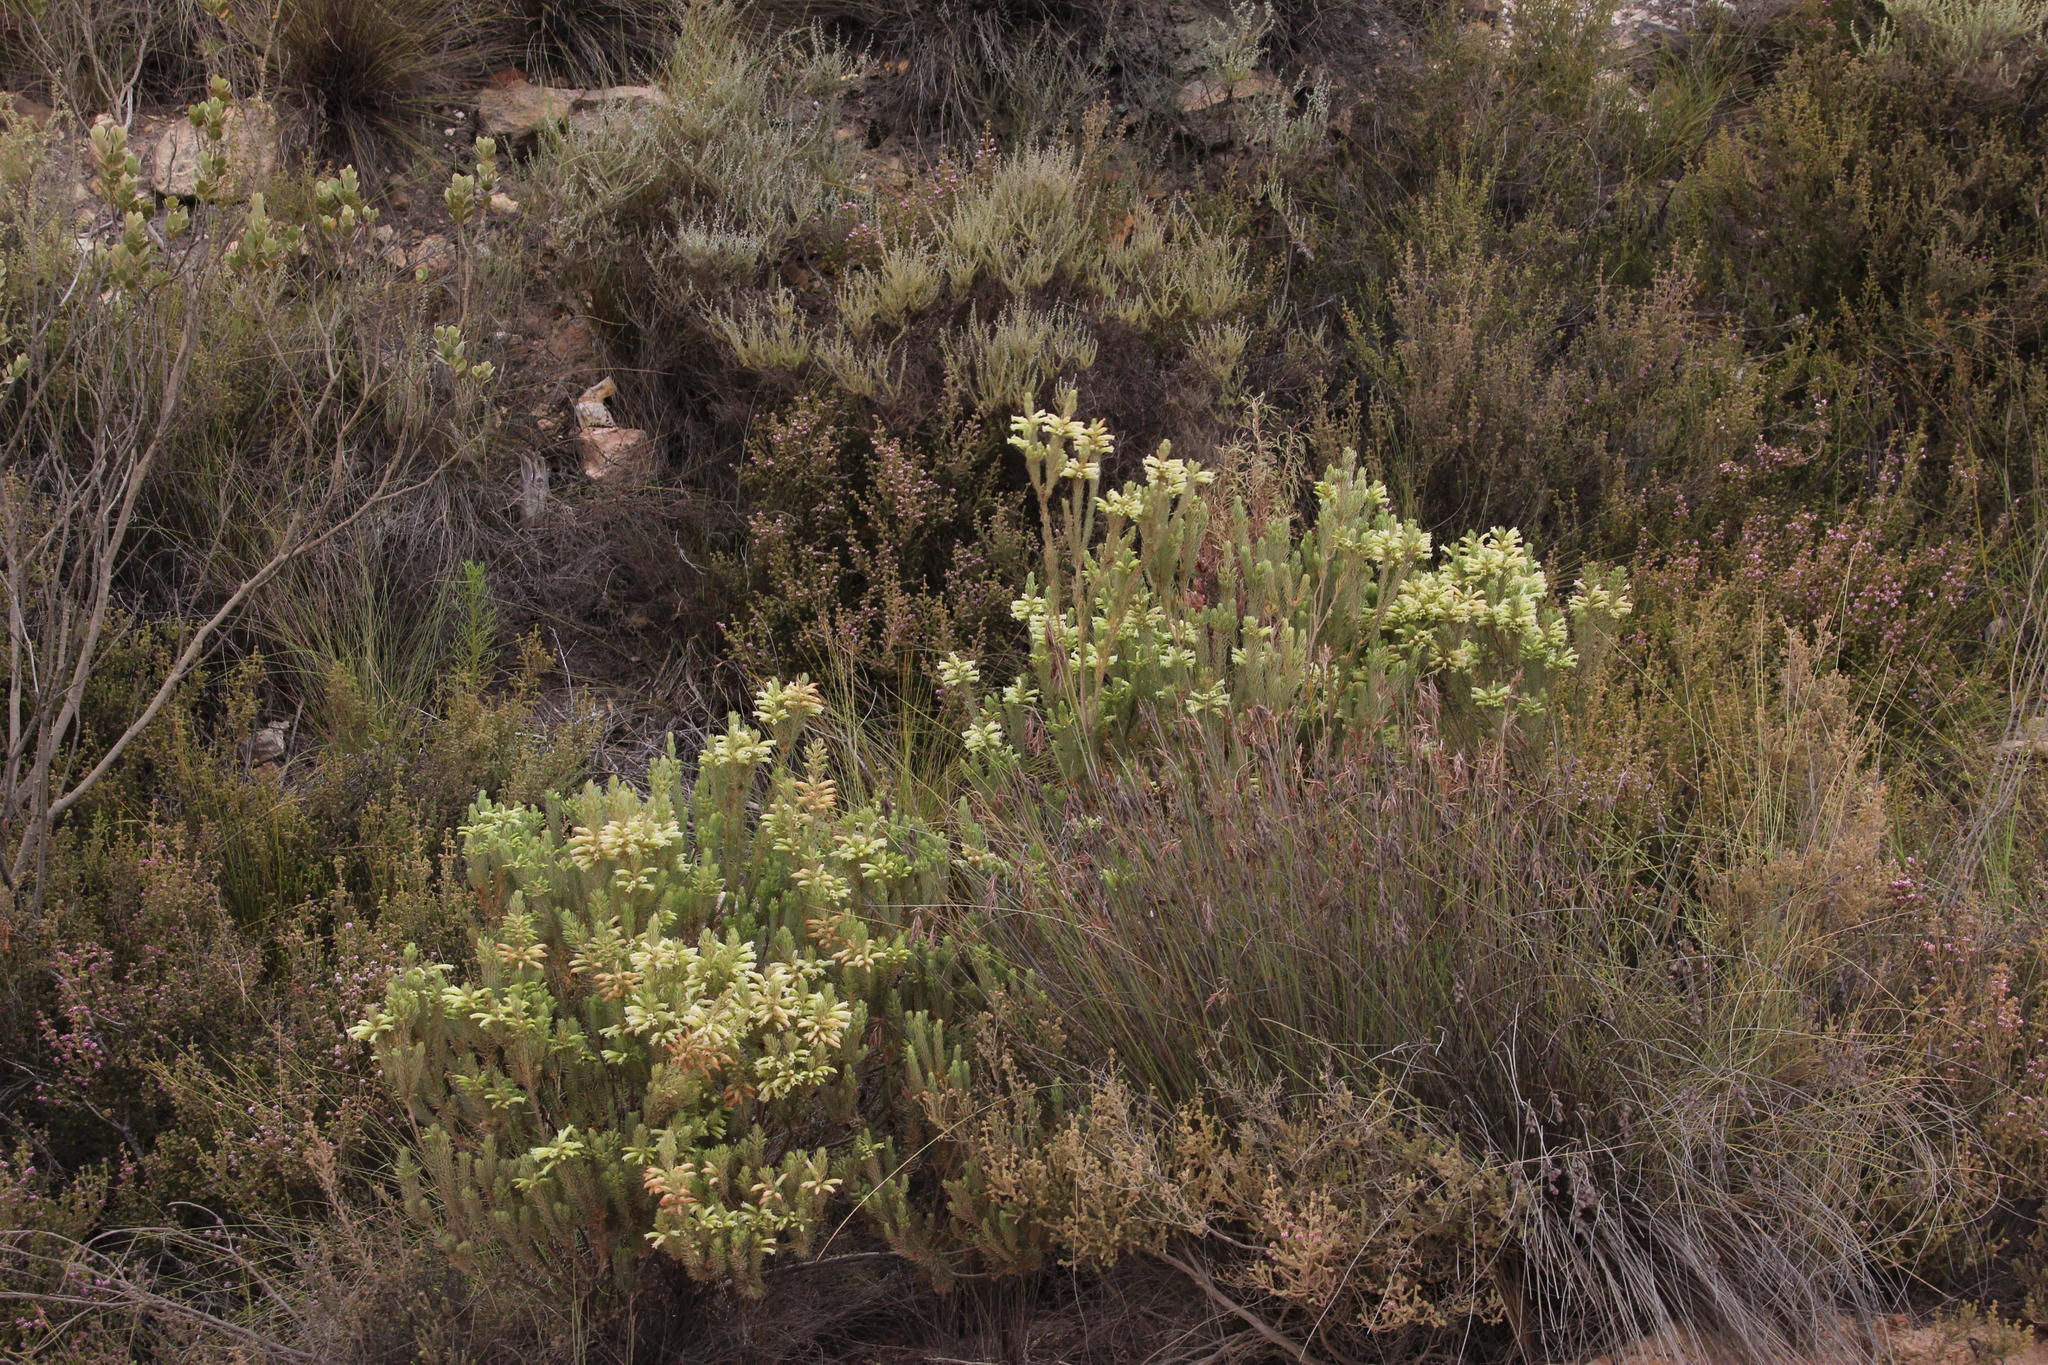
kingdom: Plantae
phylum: Tracheophyta
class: Magnoliopsida
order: Ericales
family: Ericaceae
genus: Erica
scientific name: Erica viscaria
